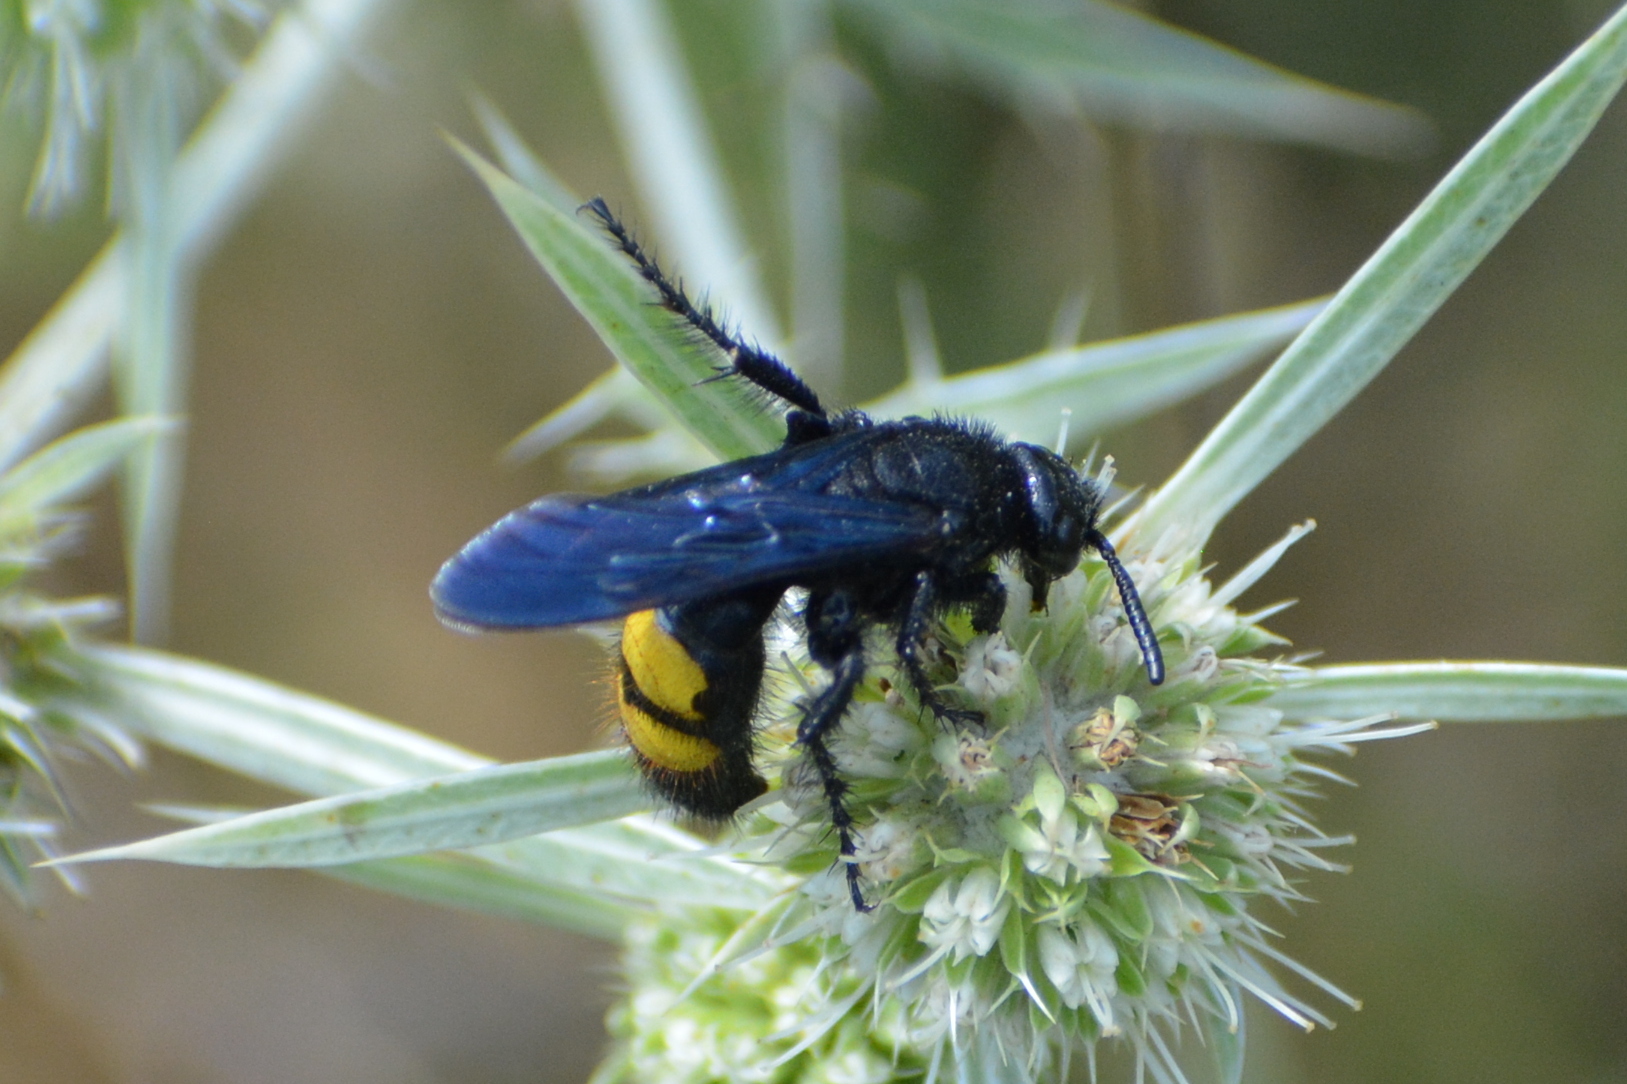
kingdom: Animalia
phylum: Arthropoda
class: Insecta
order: Hymenoptera
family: Scoliidae
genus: Scolia
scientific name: Scolia hirta
